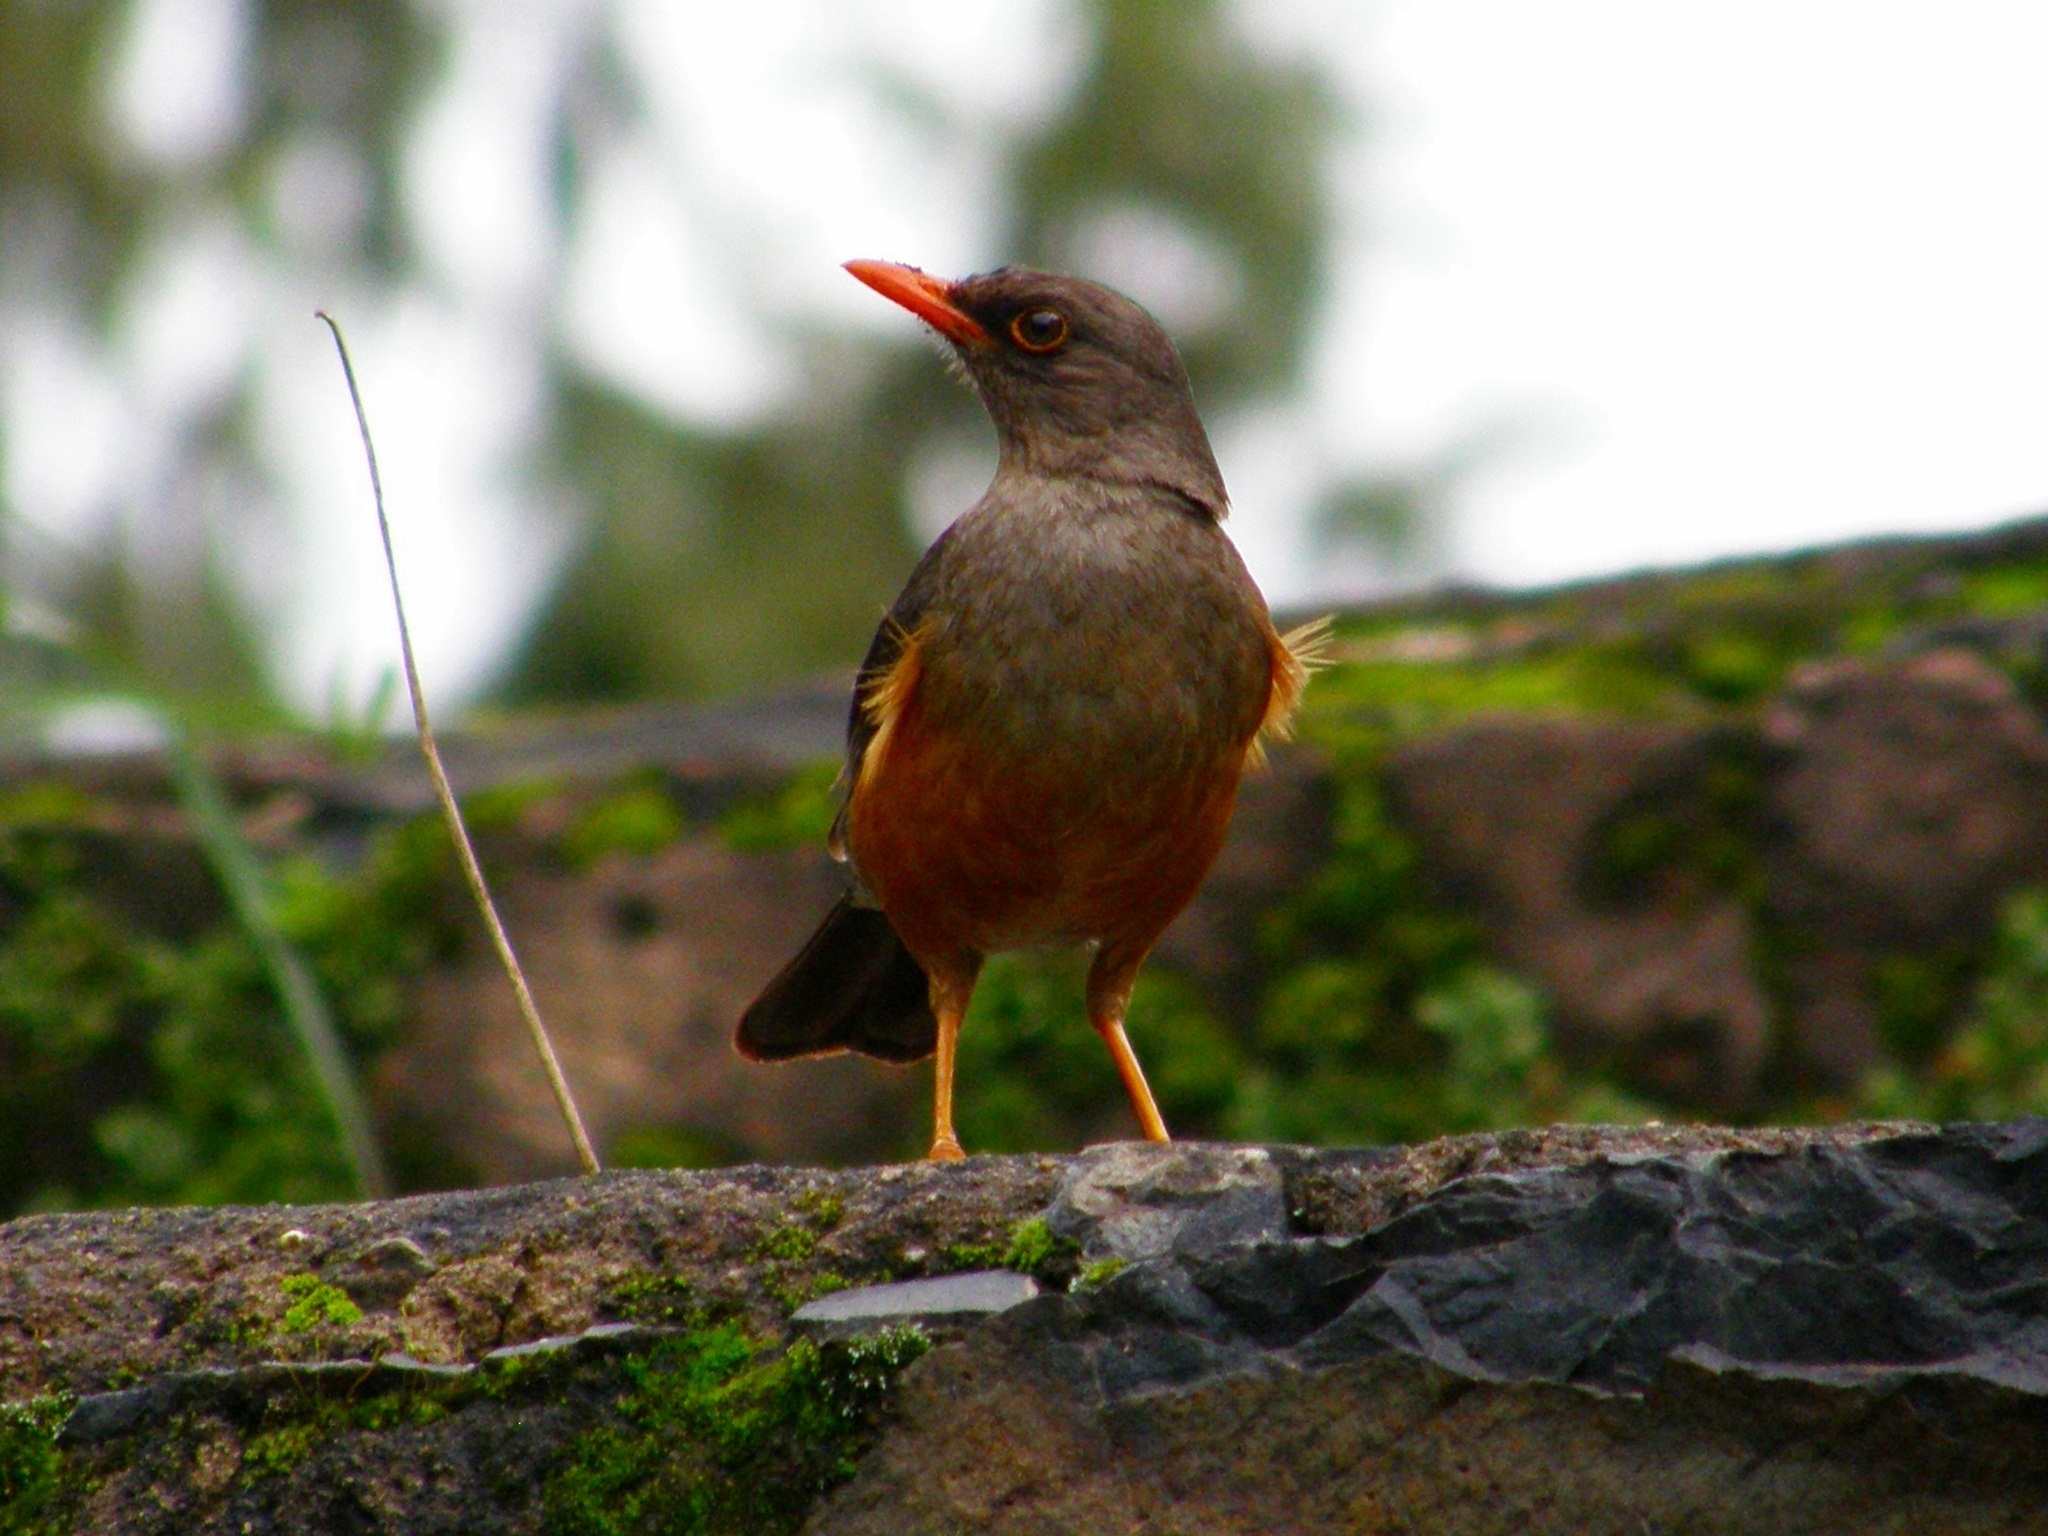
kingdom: Animalia
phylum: Chordata
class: Aves
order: Passeriformes
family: Turdidae
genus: Turdus
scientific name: Turdus abyssinicus
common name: Abyssinian thrush
